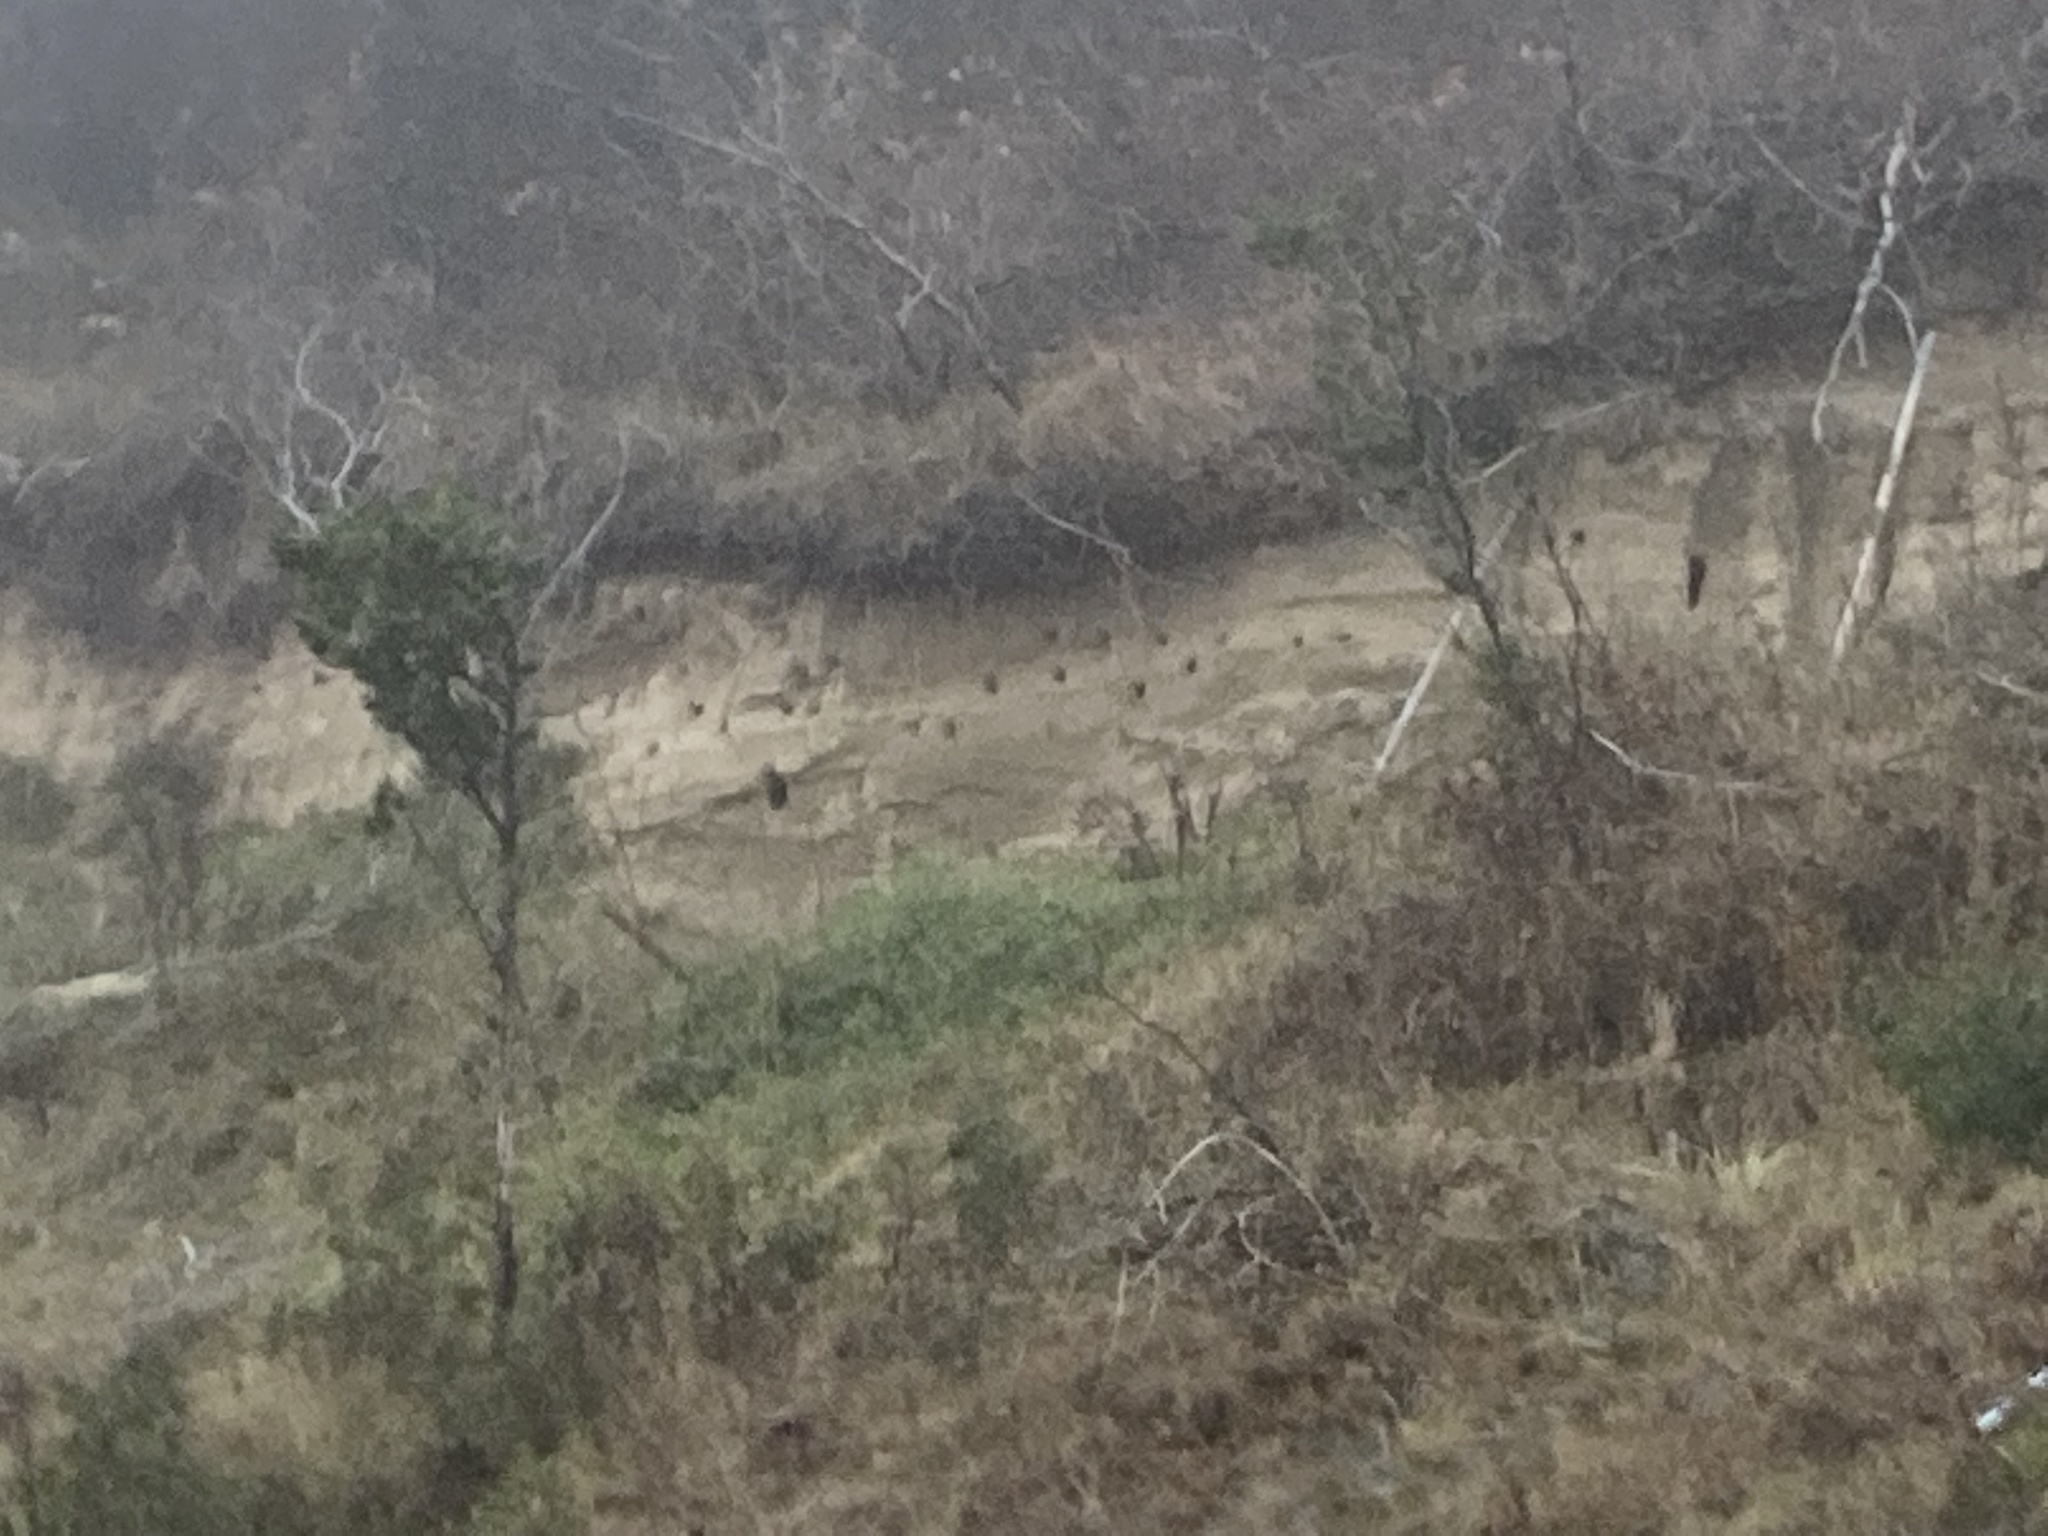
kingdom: Animalia
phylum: Chordata
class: Aves
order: Passeriformes
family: Hirundinidae
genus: Riparia
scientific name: Riparia riparia
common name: Sand martin
